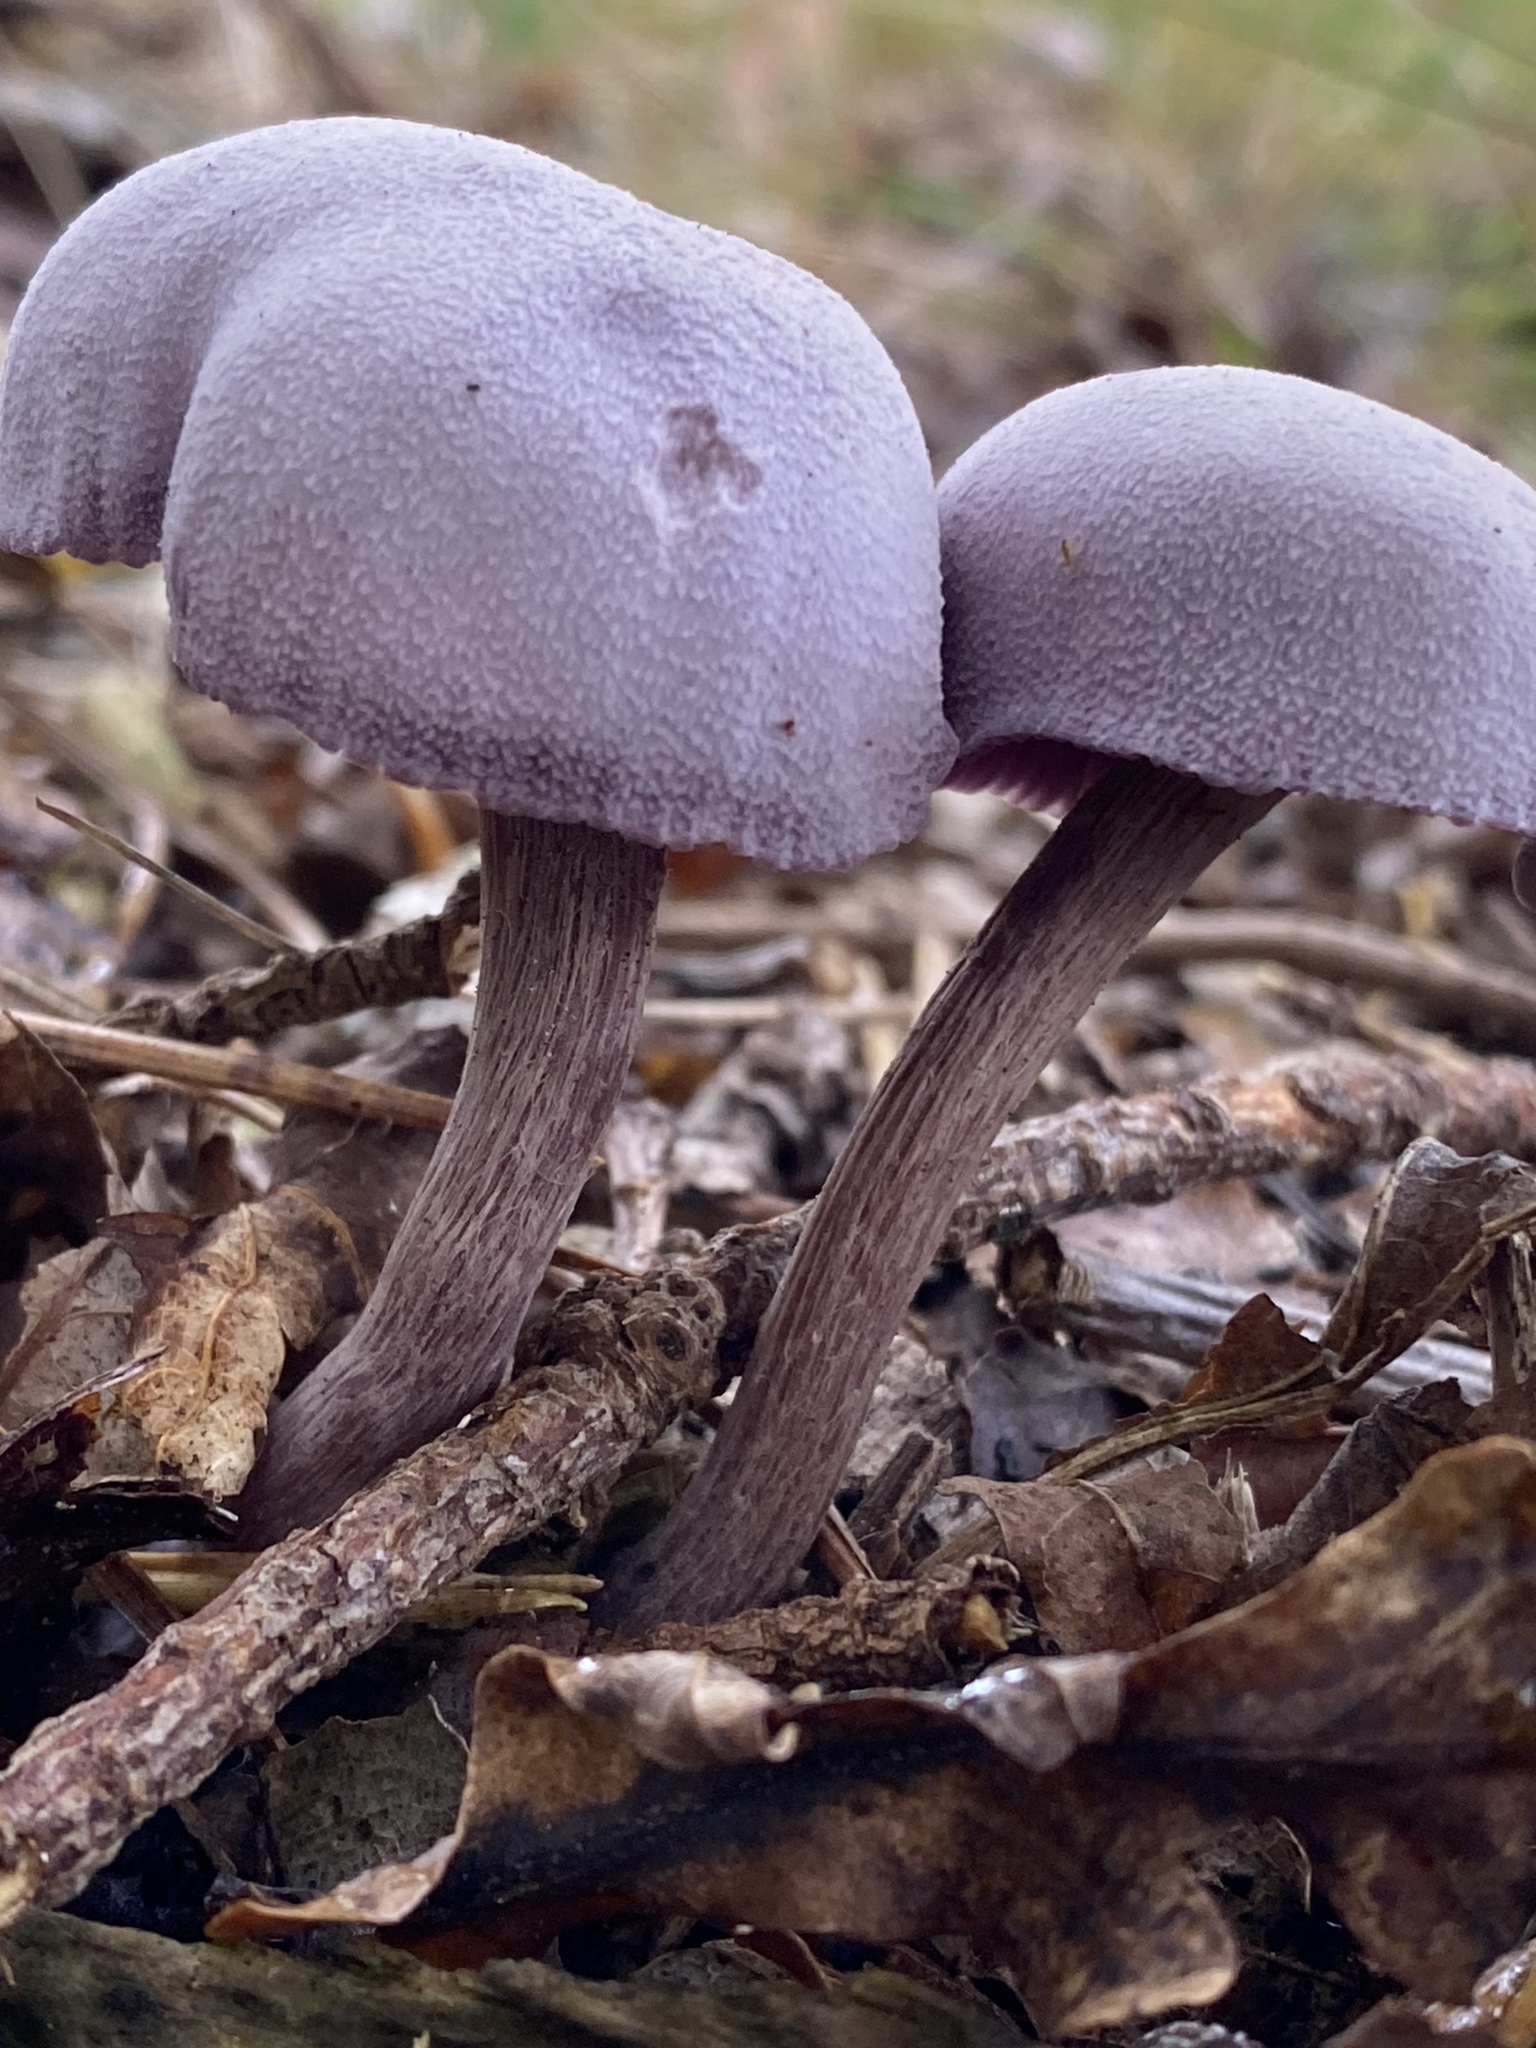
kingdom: Fungi
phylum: Basidiomycota
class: Agaricomycetes
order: Agaricales
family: Hydnangiaceae
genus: Laccaria
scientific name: Laccaria amethystina
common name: Amethyst deceiver
